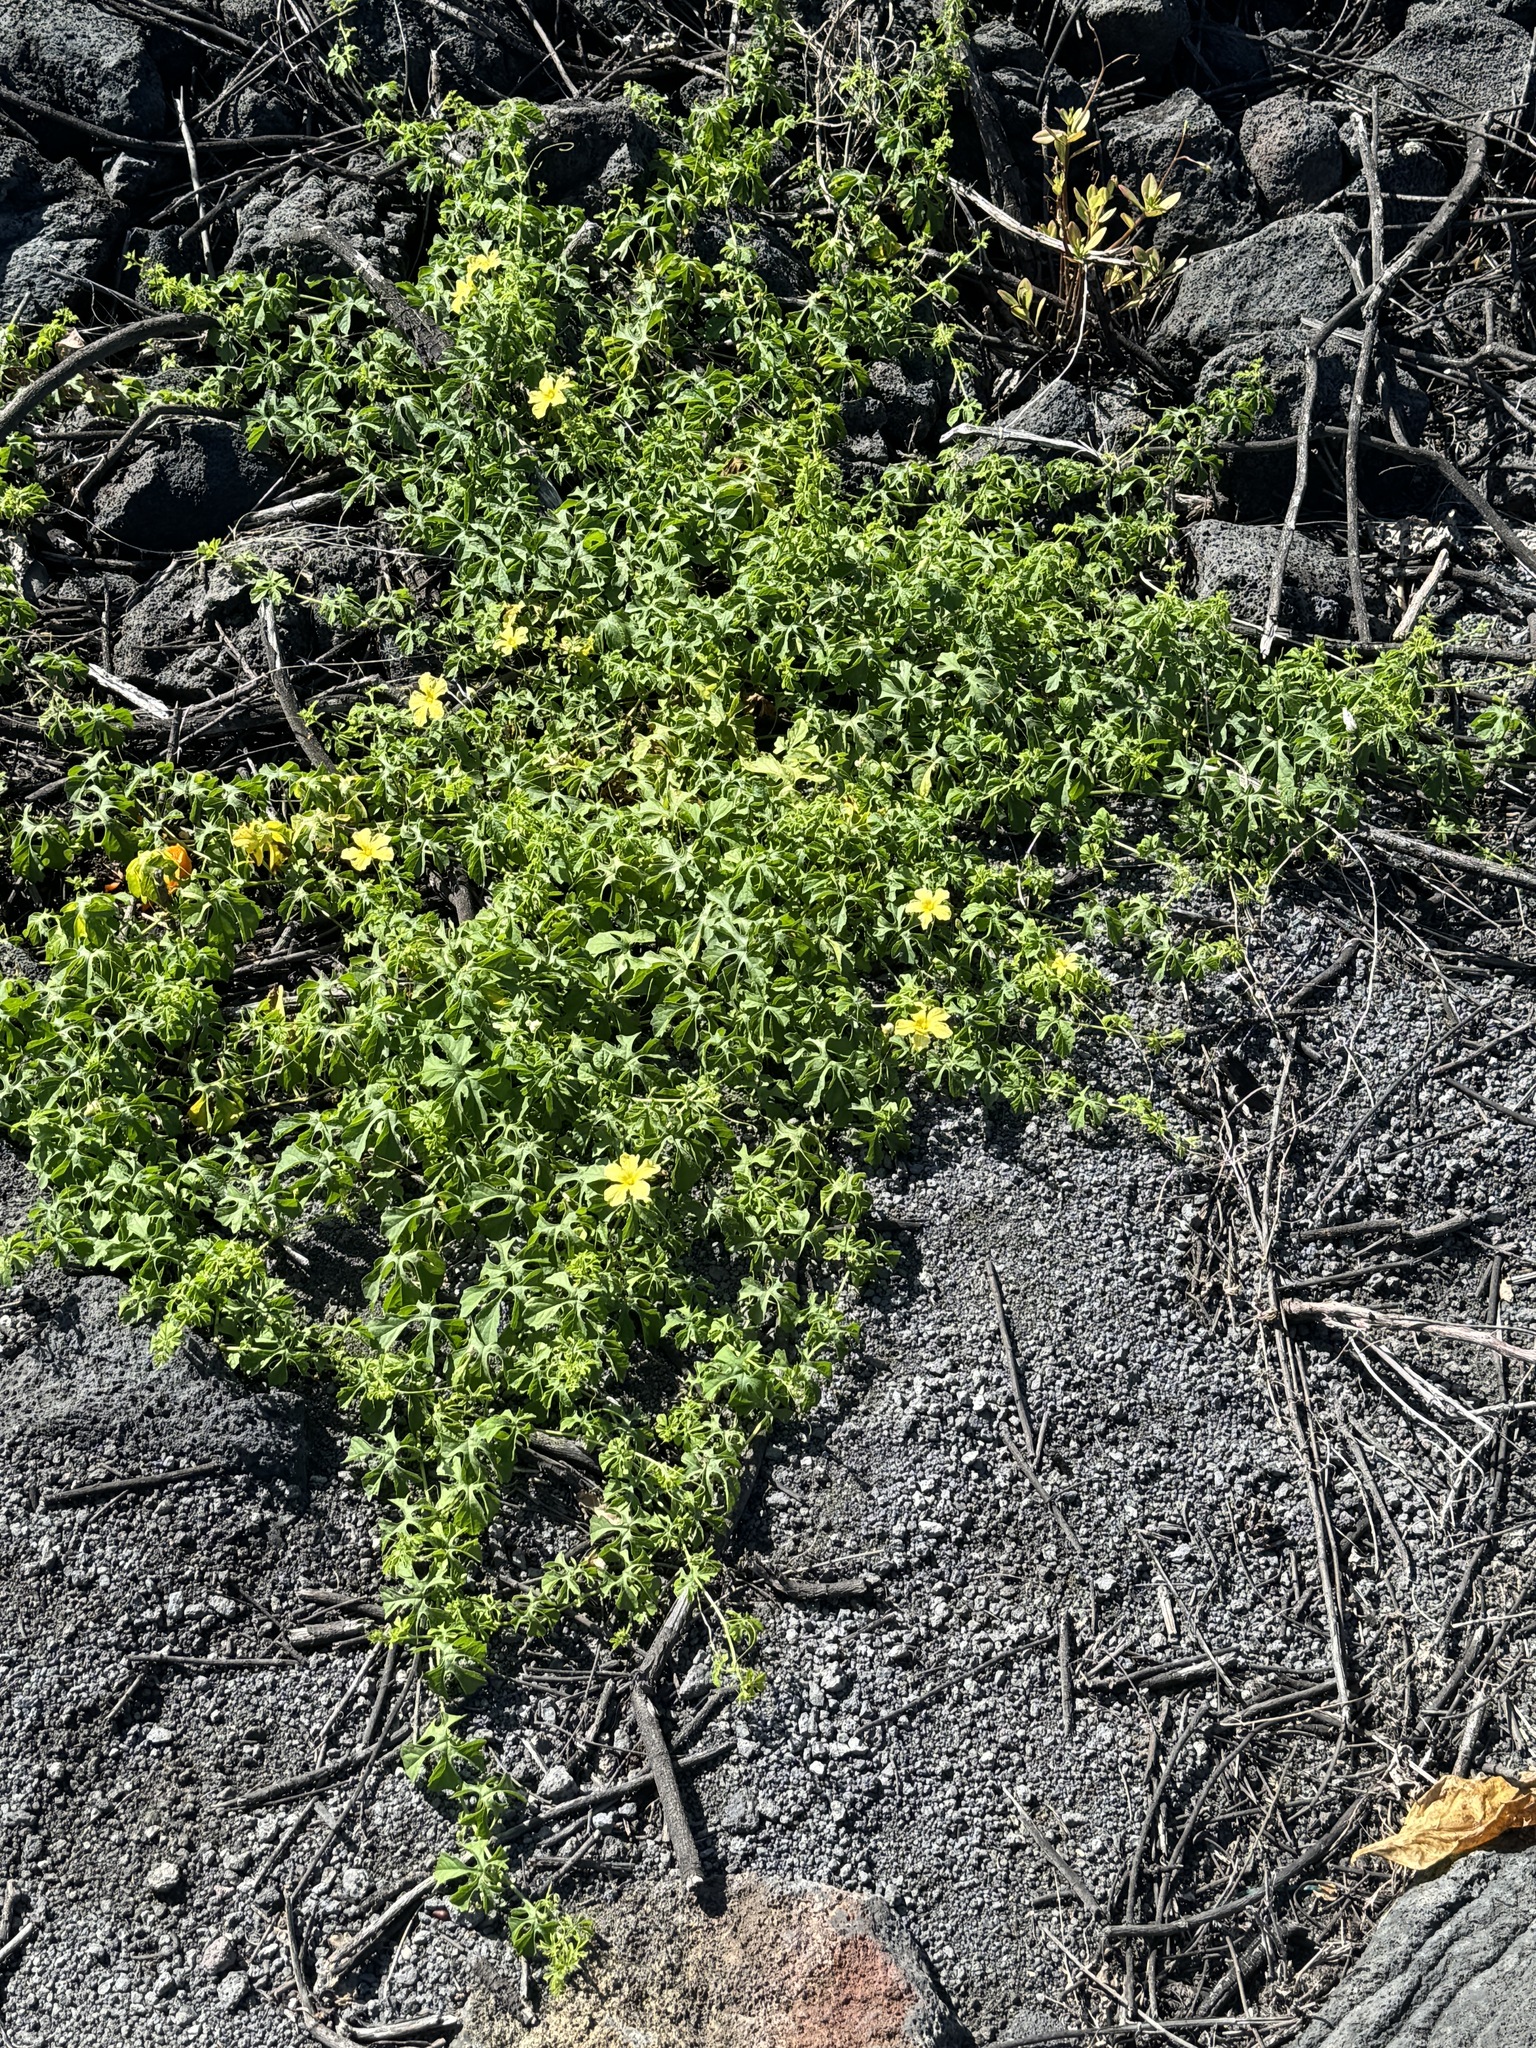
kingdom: Plantae
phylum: Tracheophyta
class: Magnoliopsida
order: Cucurbitales
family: Cucurbitaceae
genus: Momordica
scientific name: Momordica charantia
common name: Balsampear
